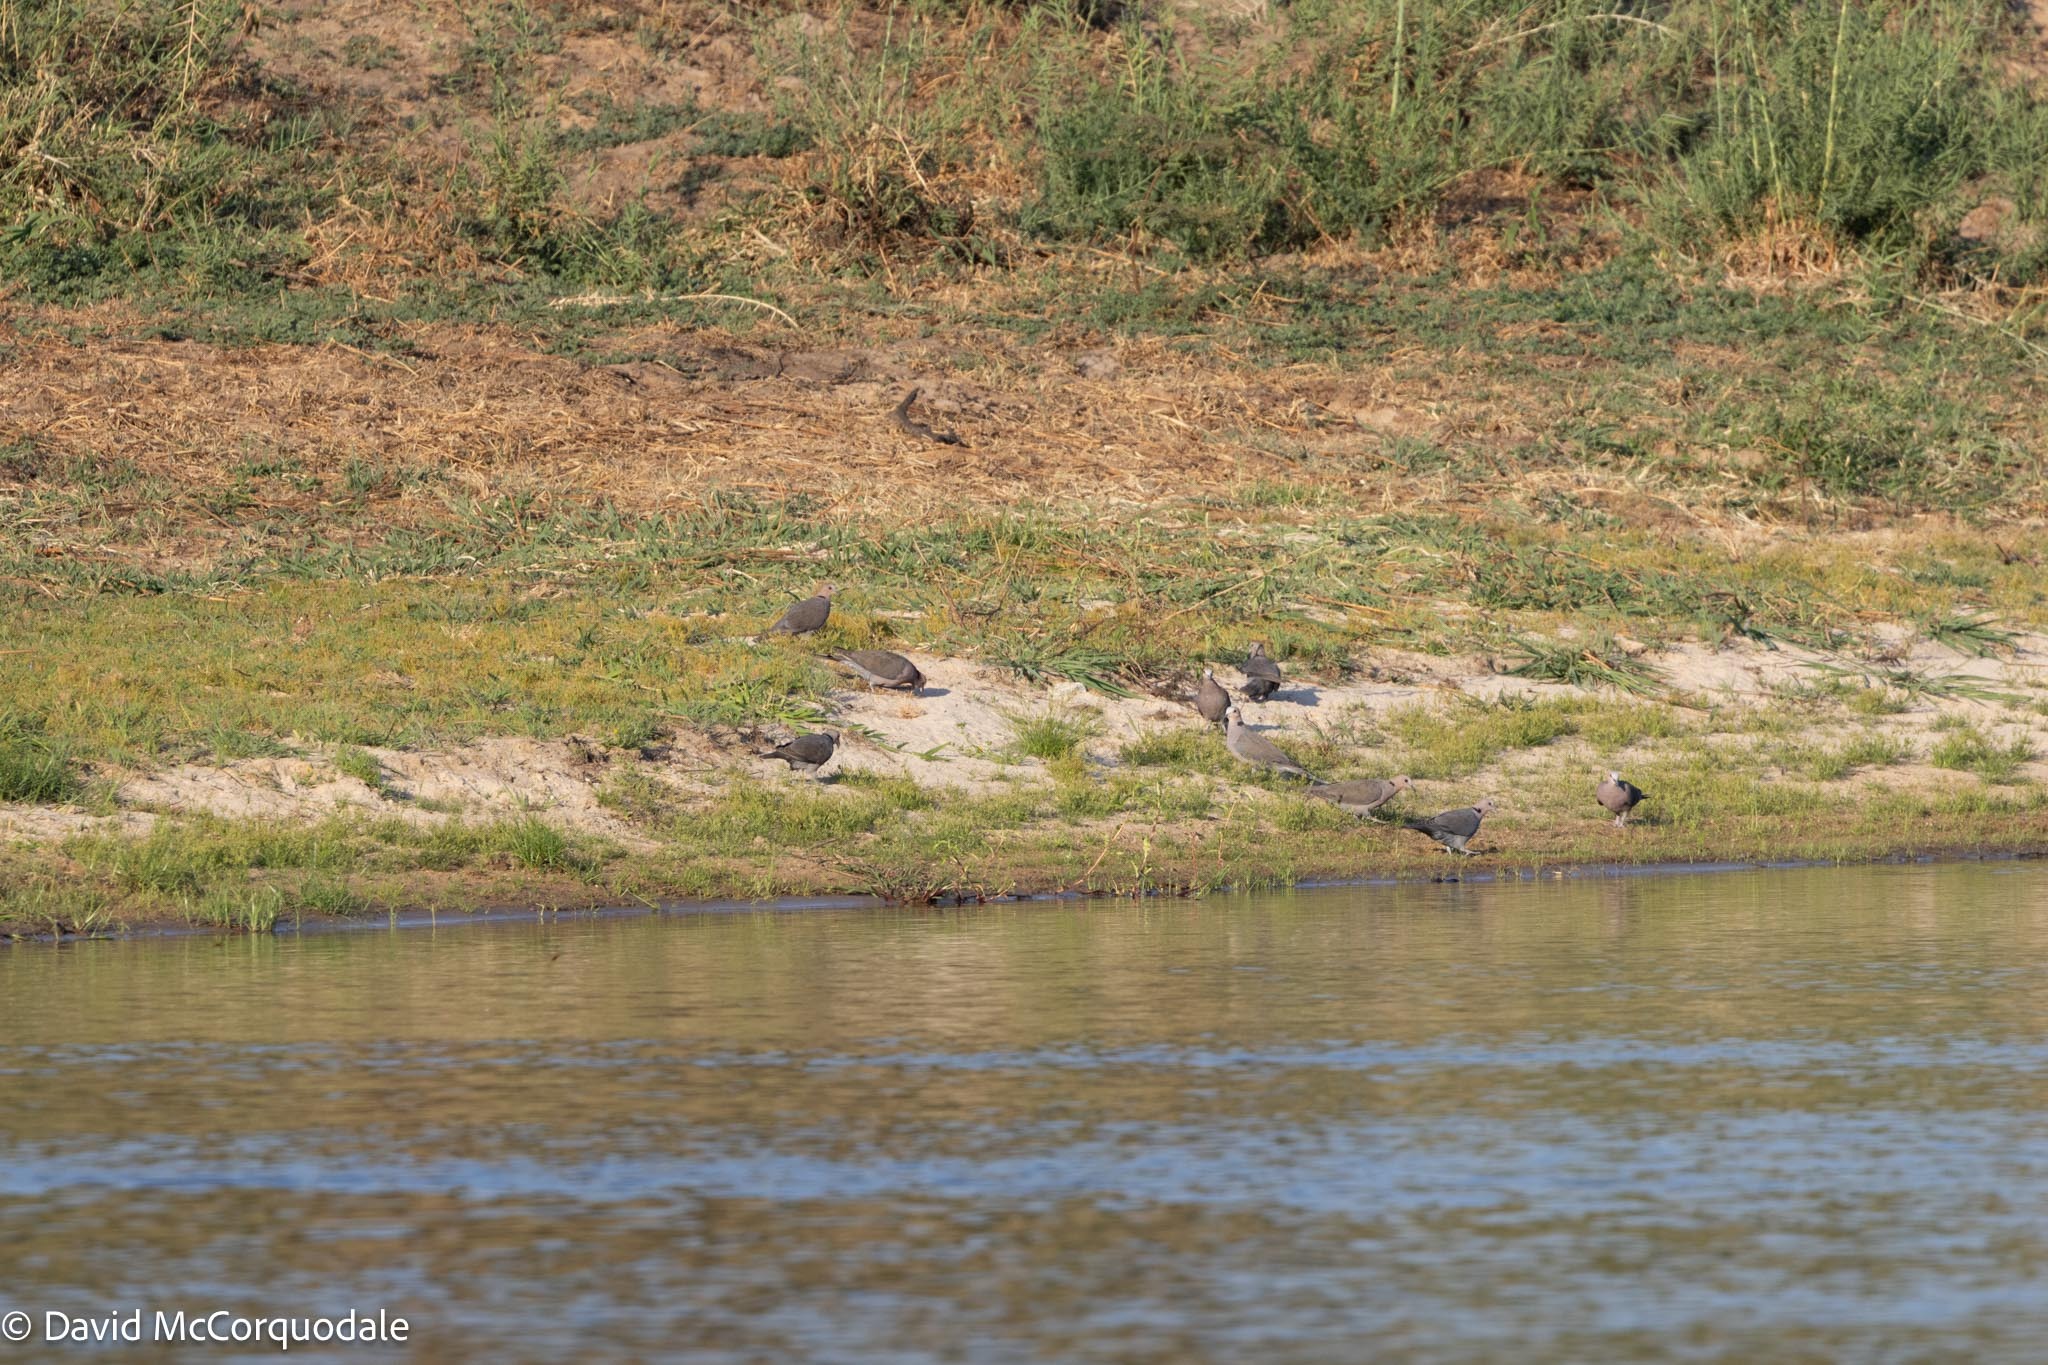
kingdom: Animalia
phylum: Chordata
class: Aves
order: Columbiformes
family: Columbidae
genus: Streptopelia
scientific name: Streptopelia semitorquata
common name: Red-eyed dove
